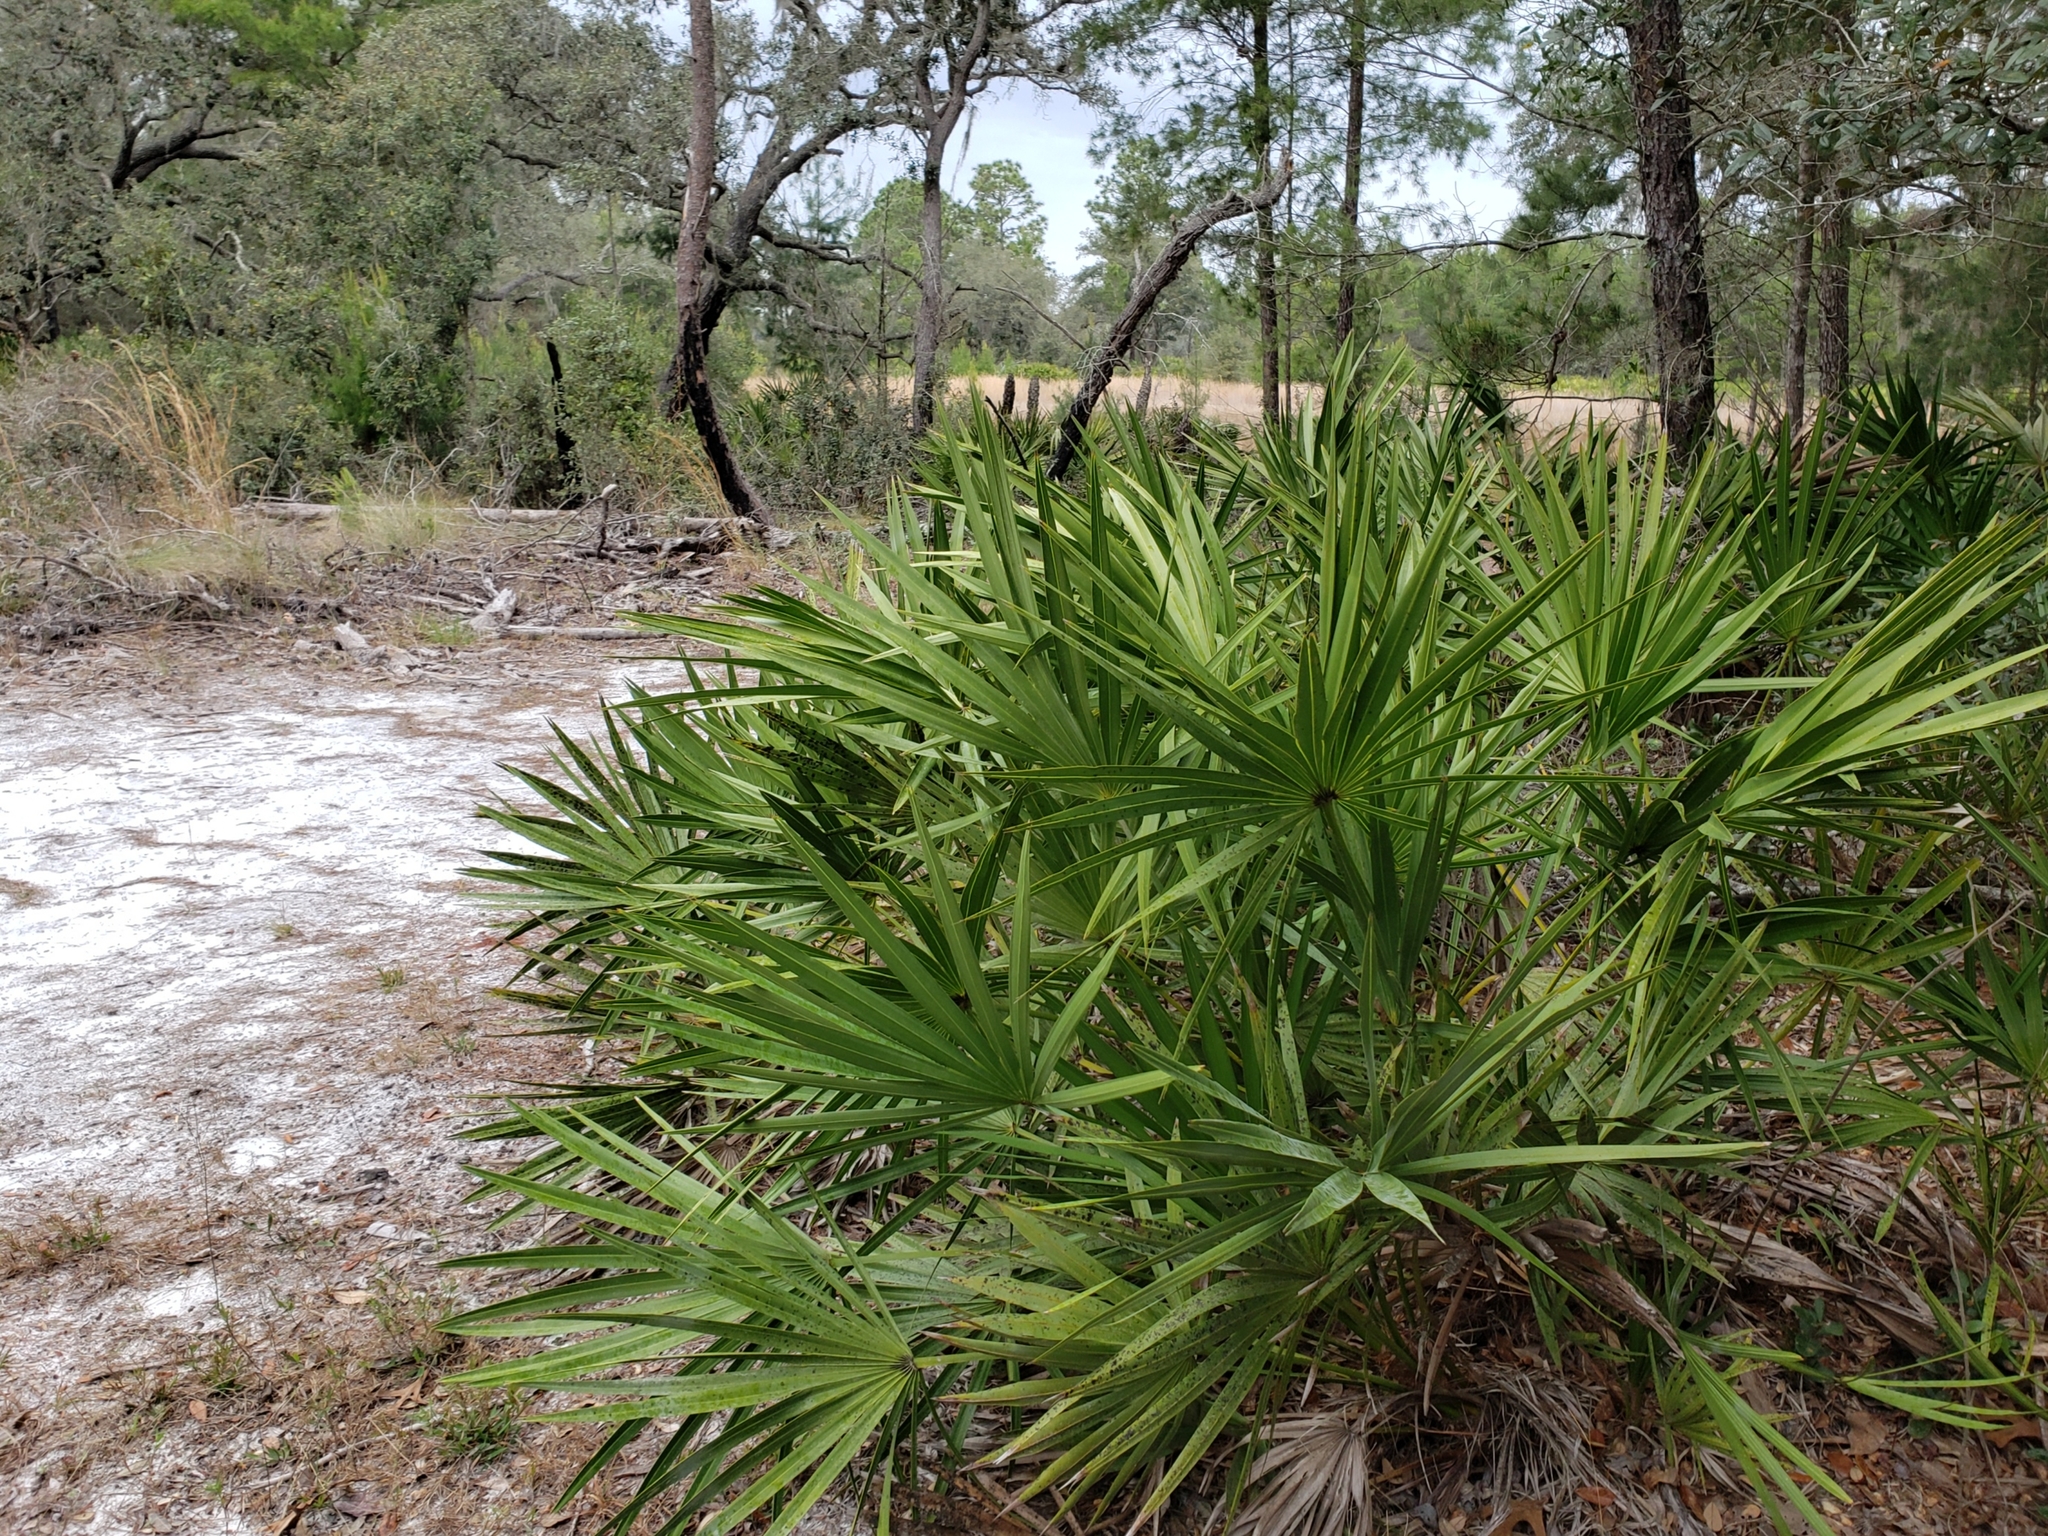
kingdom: Plantae
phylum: Tracheophyta
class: Liliopsida
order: Arecales
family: Arecaceae
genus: Serenoa
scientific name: Serenoa repens
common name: Saw-palmetto
